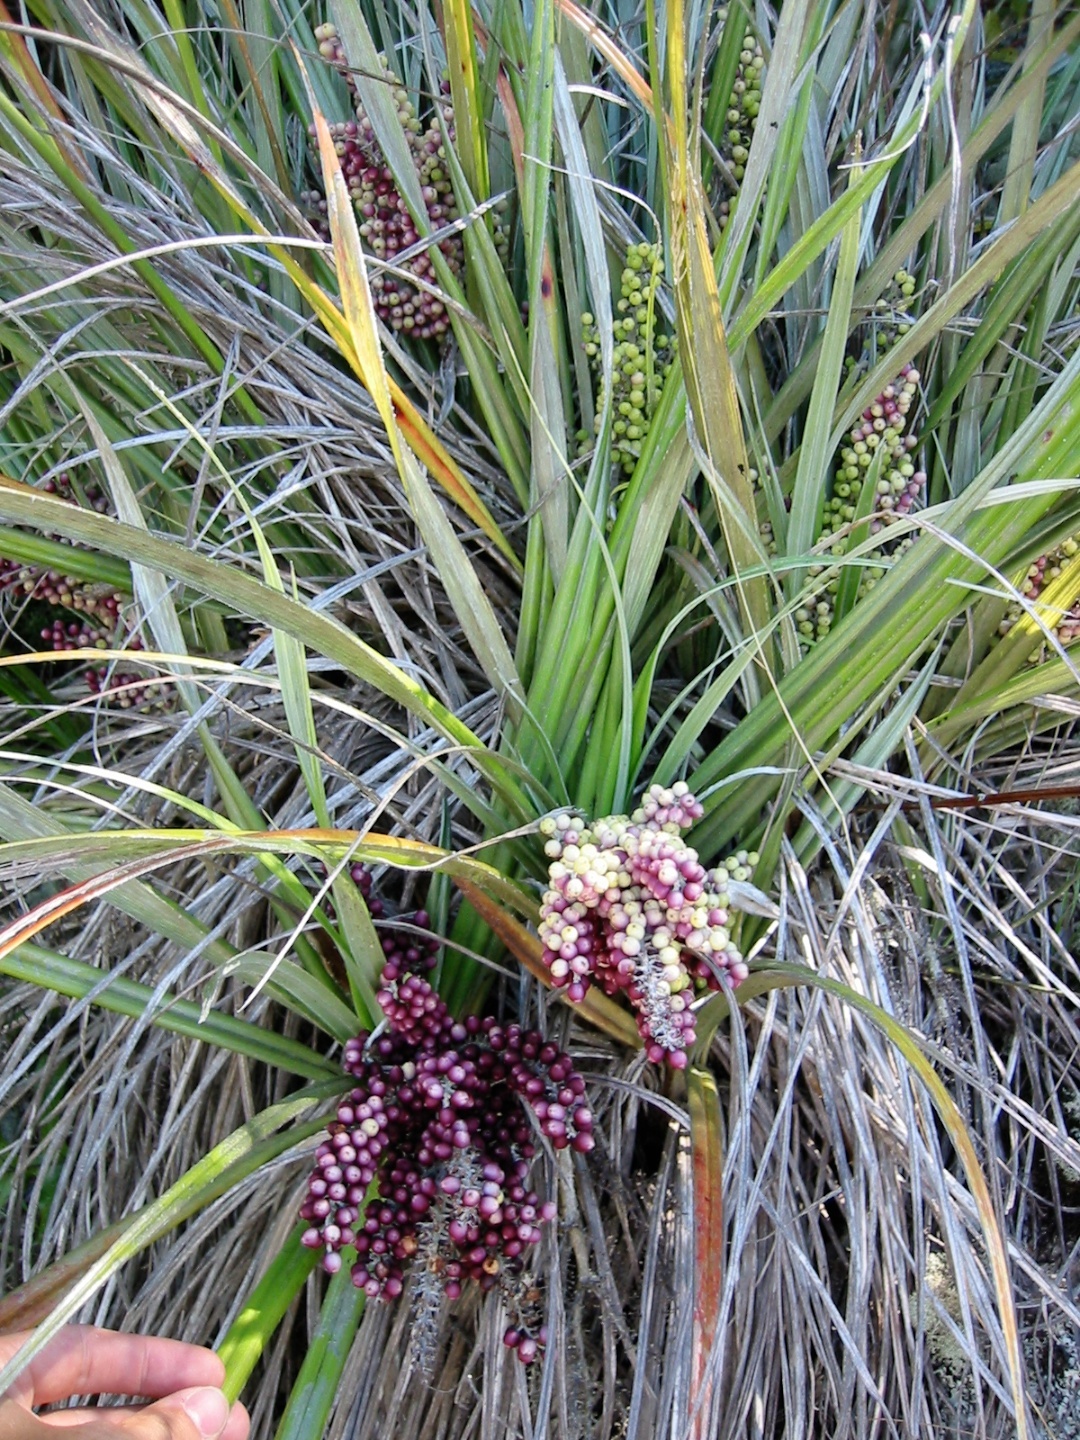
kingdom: Plantae
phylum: Tracheophyta
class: Liliopsida
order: Asparagales
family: Asteliaceae
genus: Astelia
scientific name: Astelia banksii
